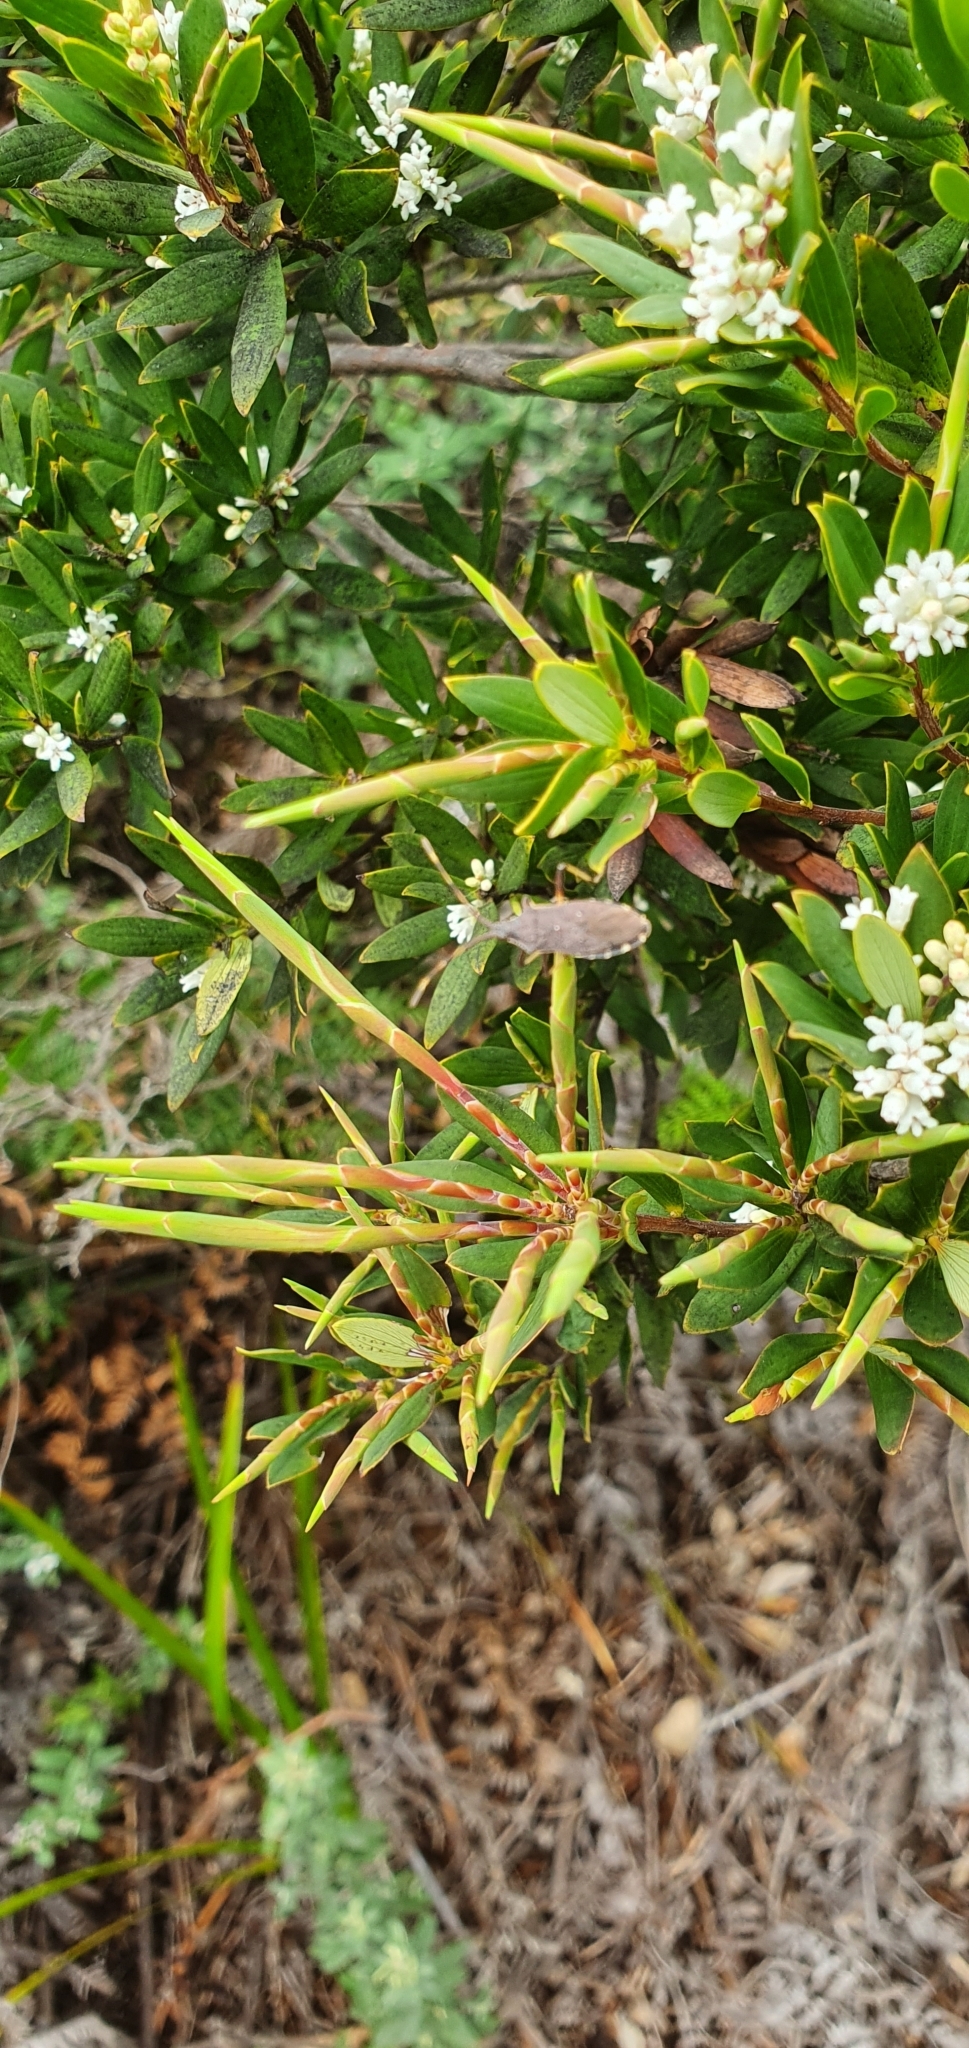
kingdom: Plantae
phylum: Tracheophyta
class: Magnoliopsida
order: Ericales
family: Ericaceae
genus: Leptecophylla
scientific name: Leptecophylla parvifolia
